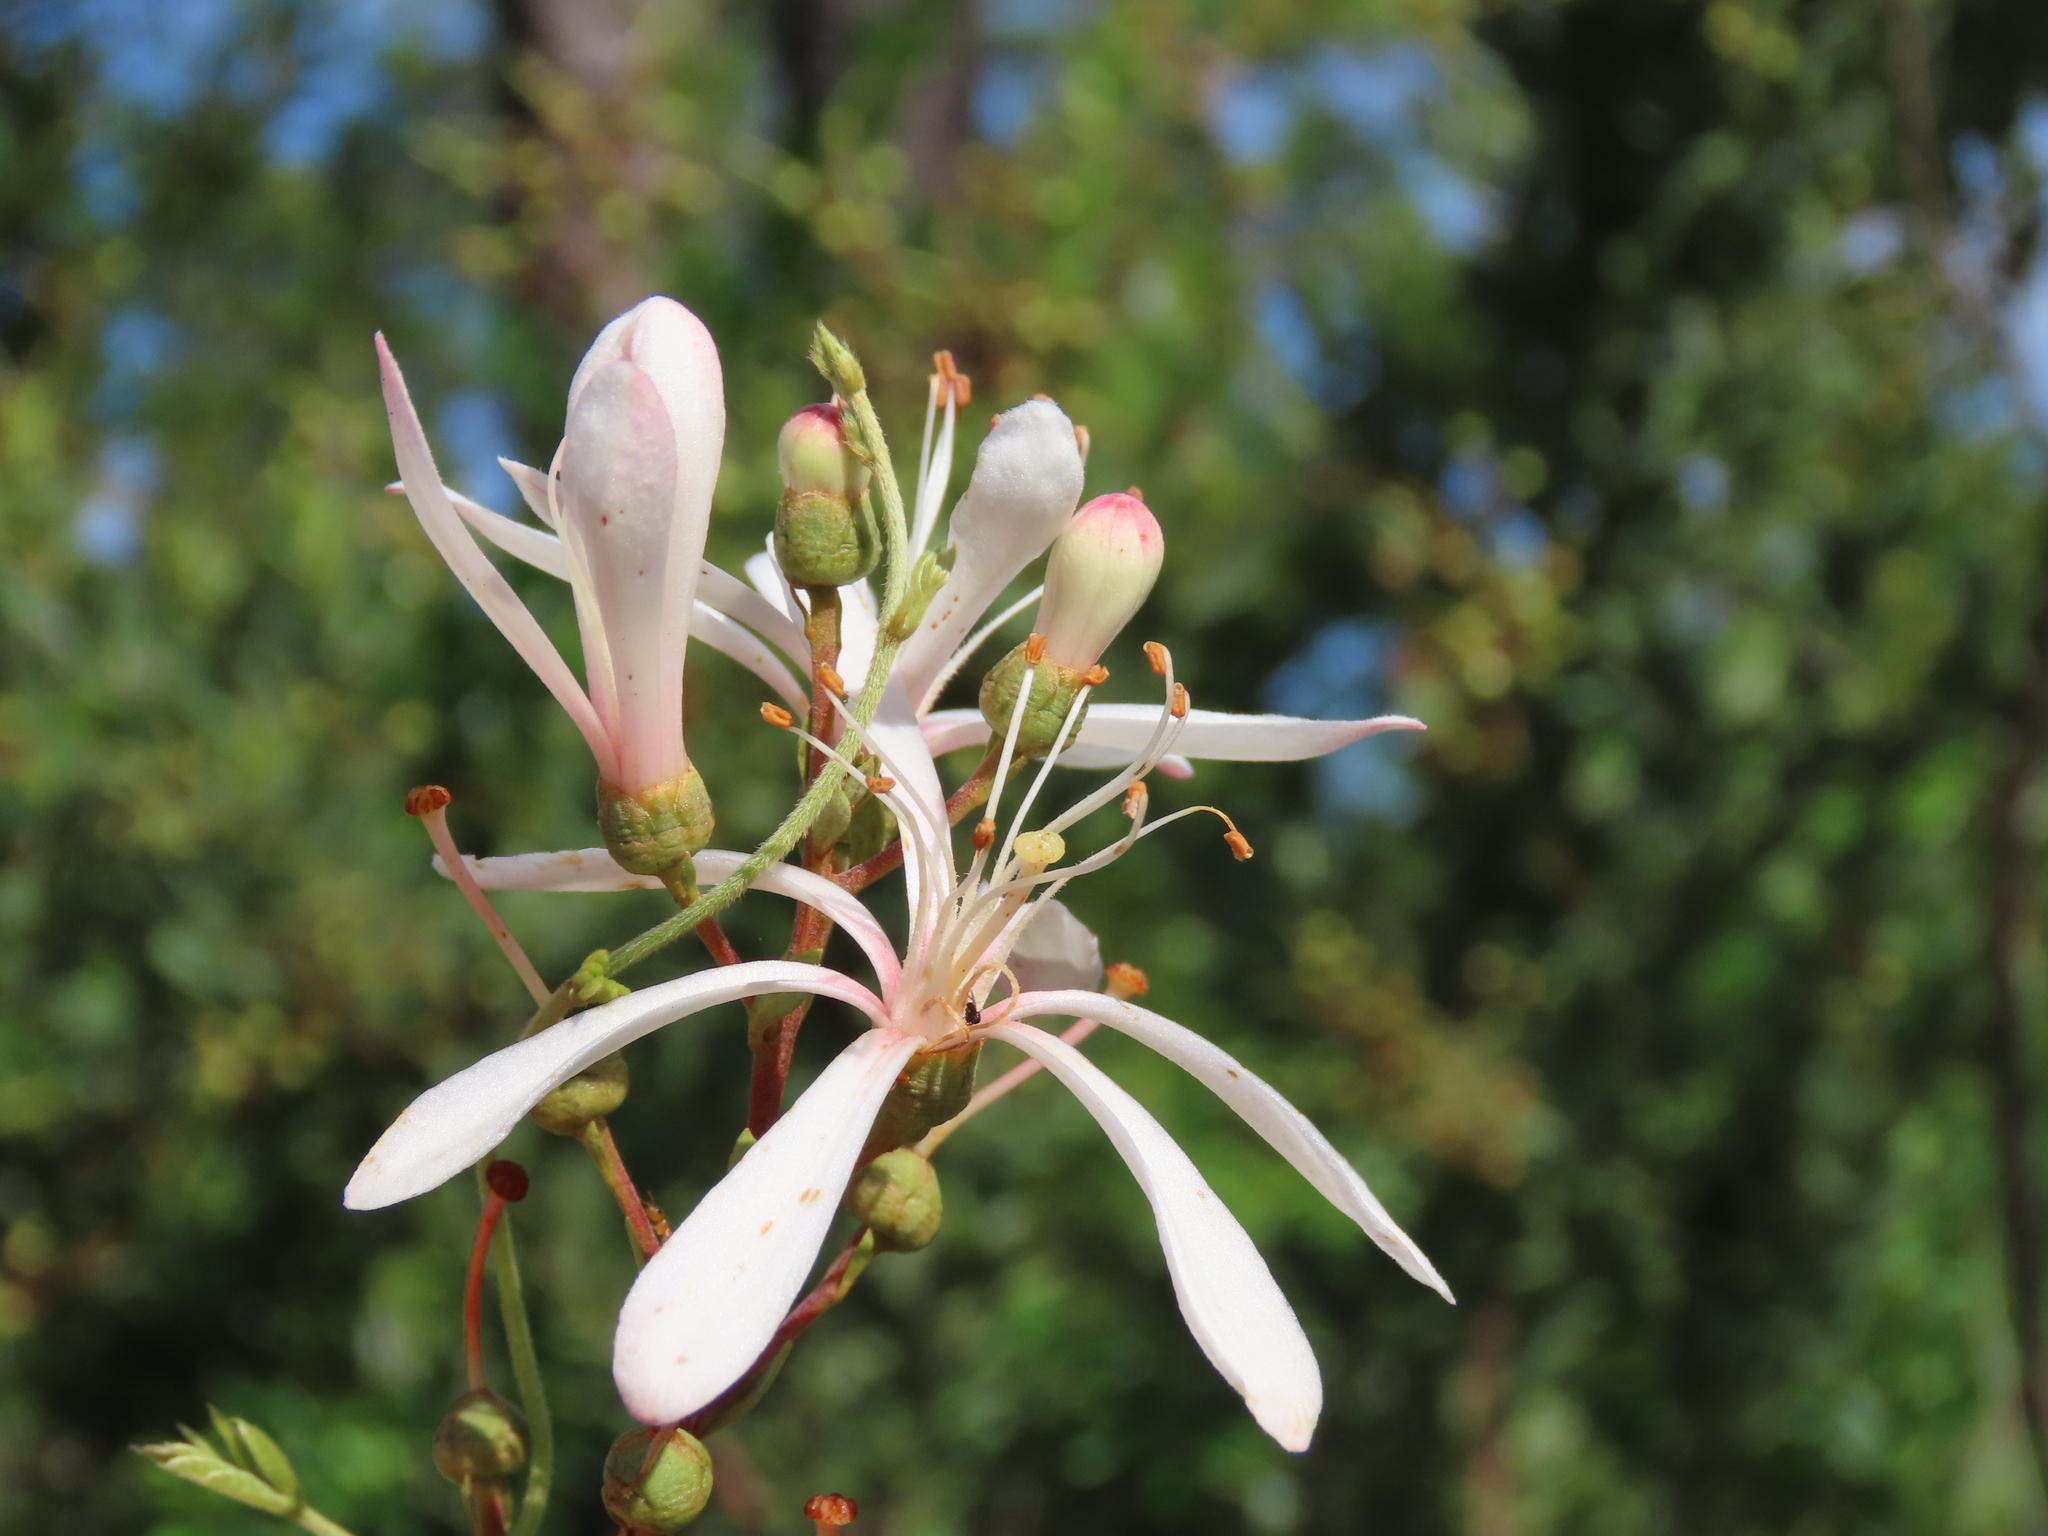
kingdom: Plantae
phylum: Tracheophyta
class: Magnoliopsida
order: Ericales
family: Ericaceae
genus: Bejaria
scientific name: Bejaria racemosa
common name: Tarflower
